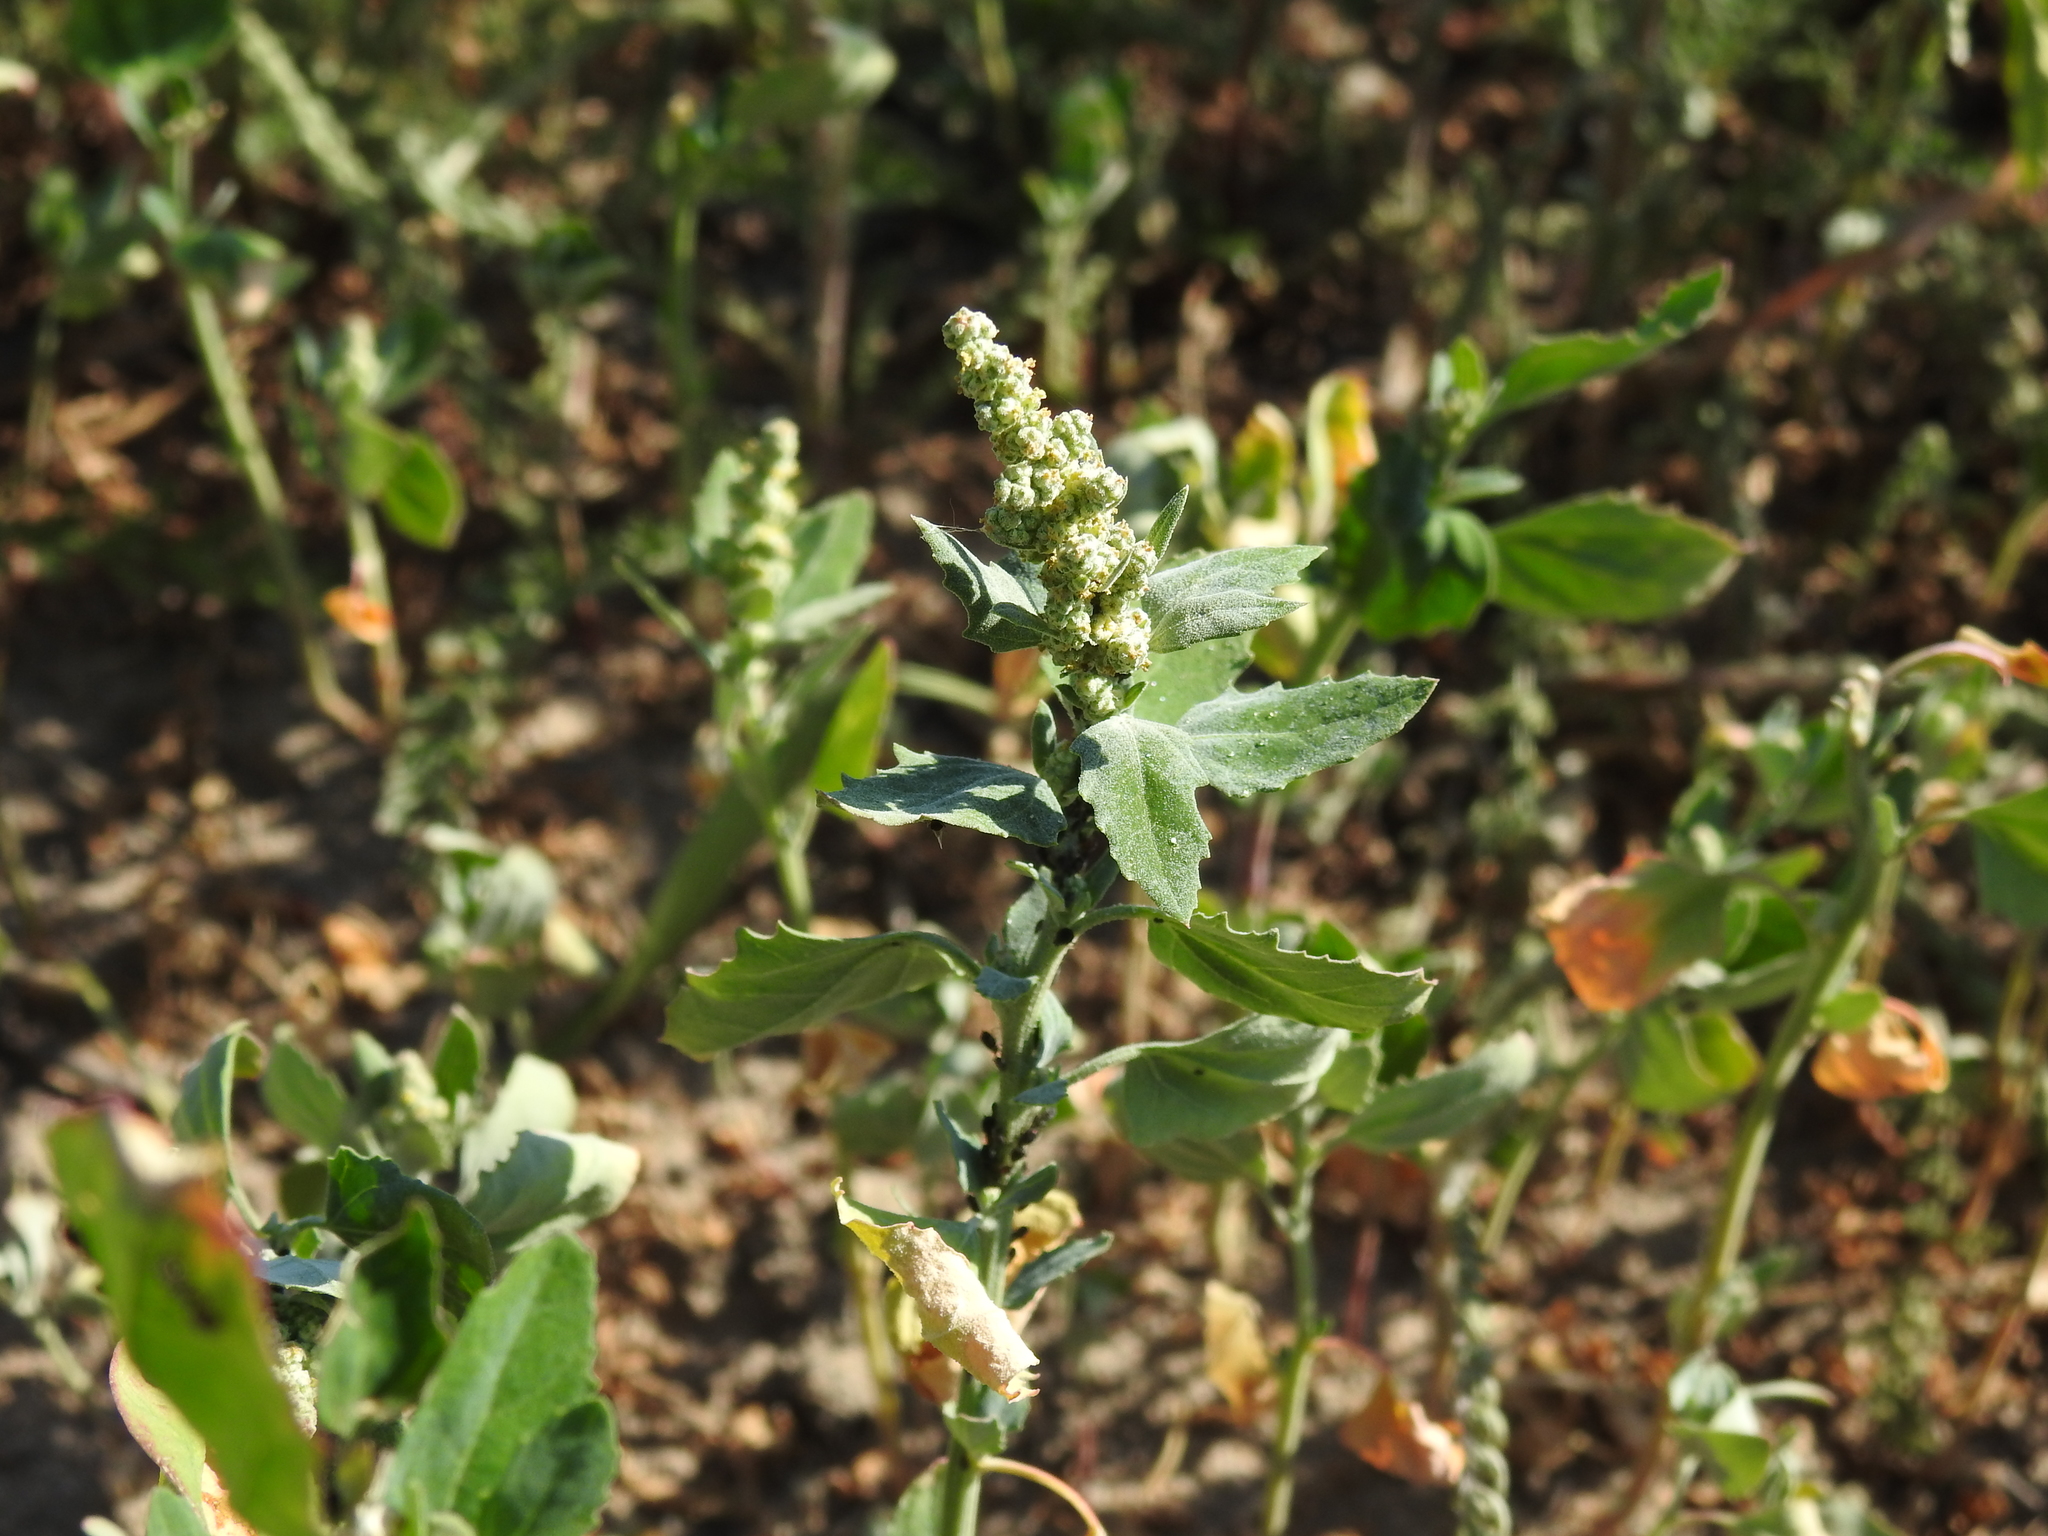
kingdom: Plantae
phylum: Tracheophyta
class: Magnoliopsida
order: Caryophyllales
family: Amaranthaceae
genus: Chenopodium
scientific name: Chenopodium album
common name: Fat-hen
